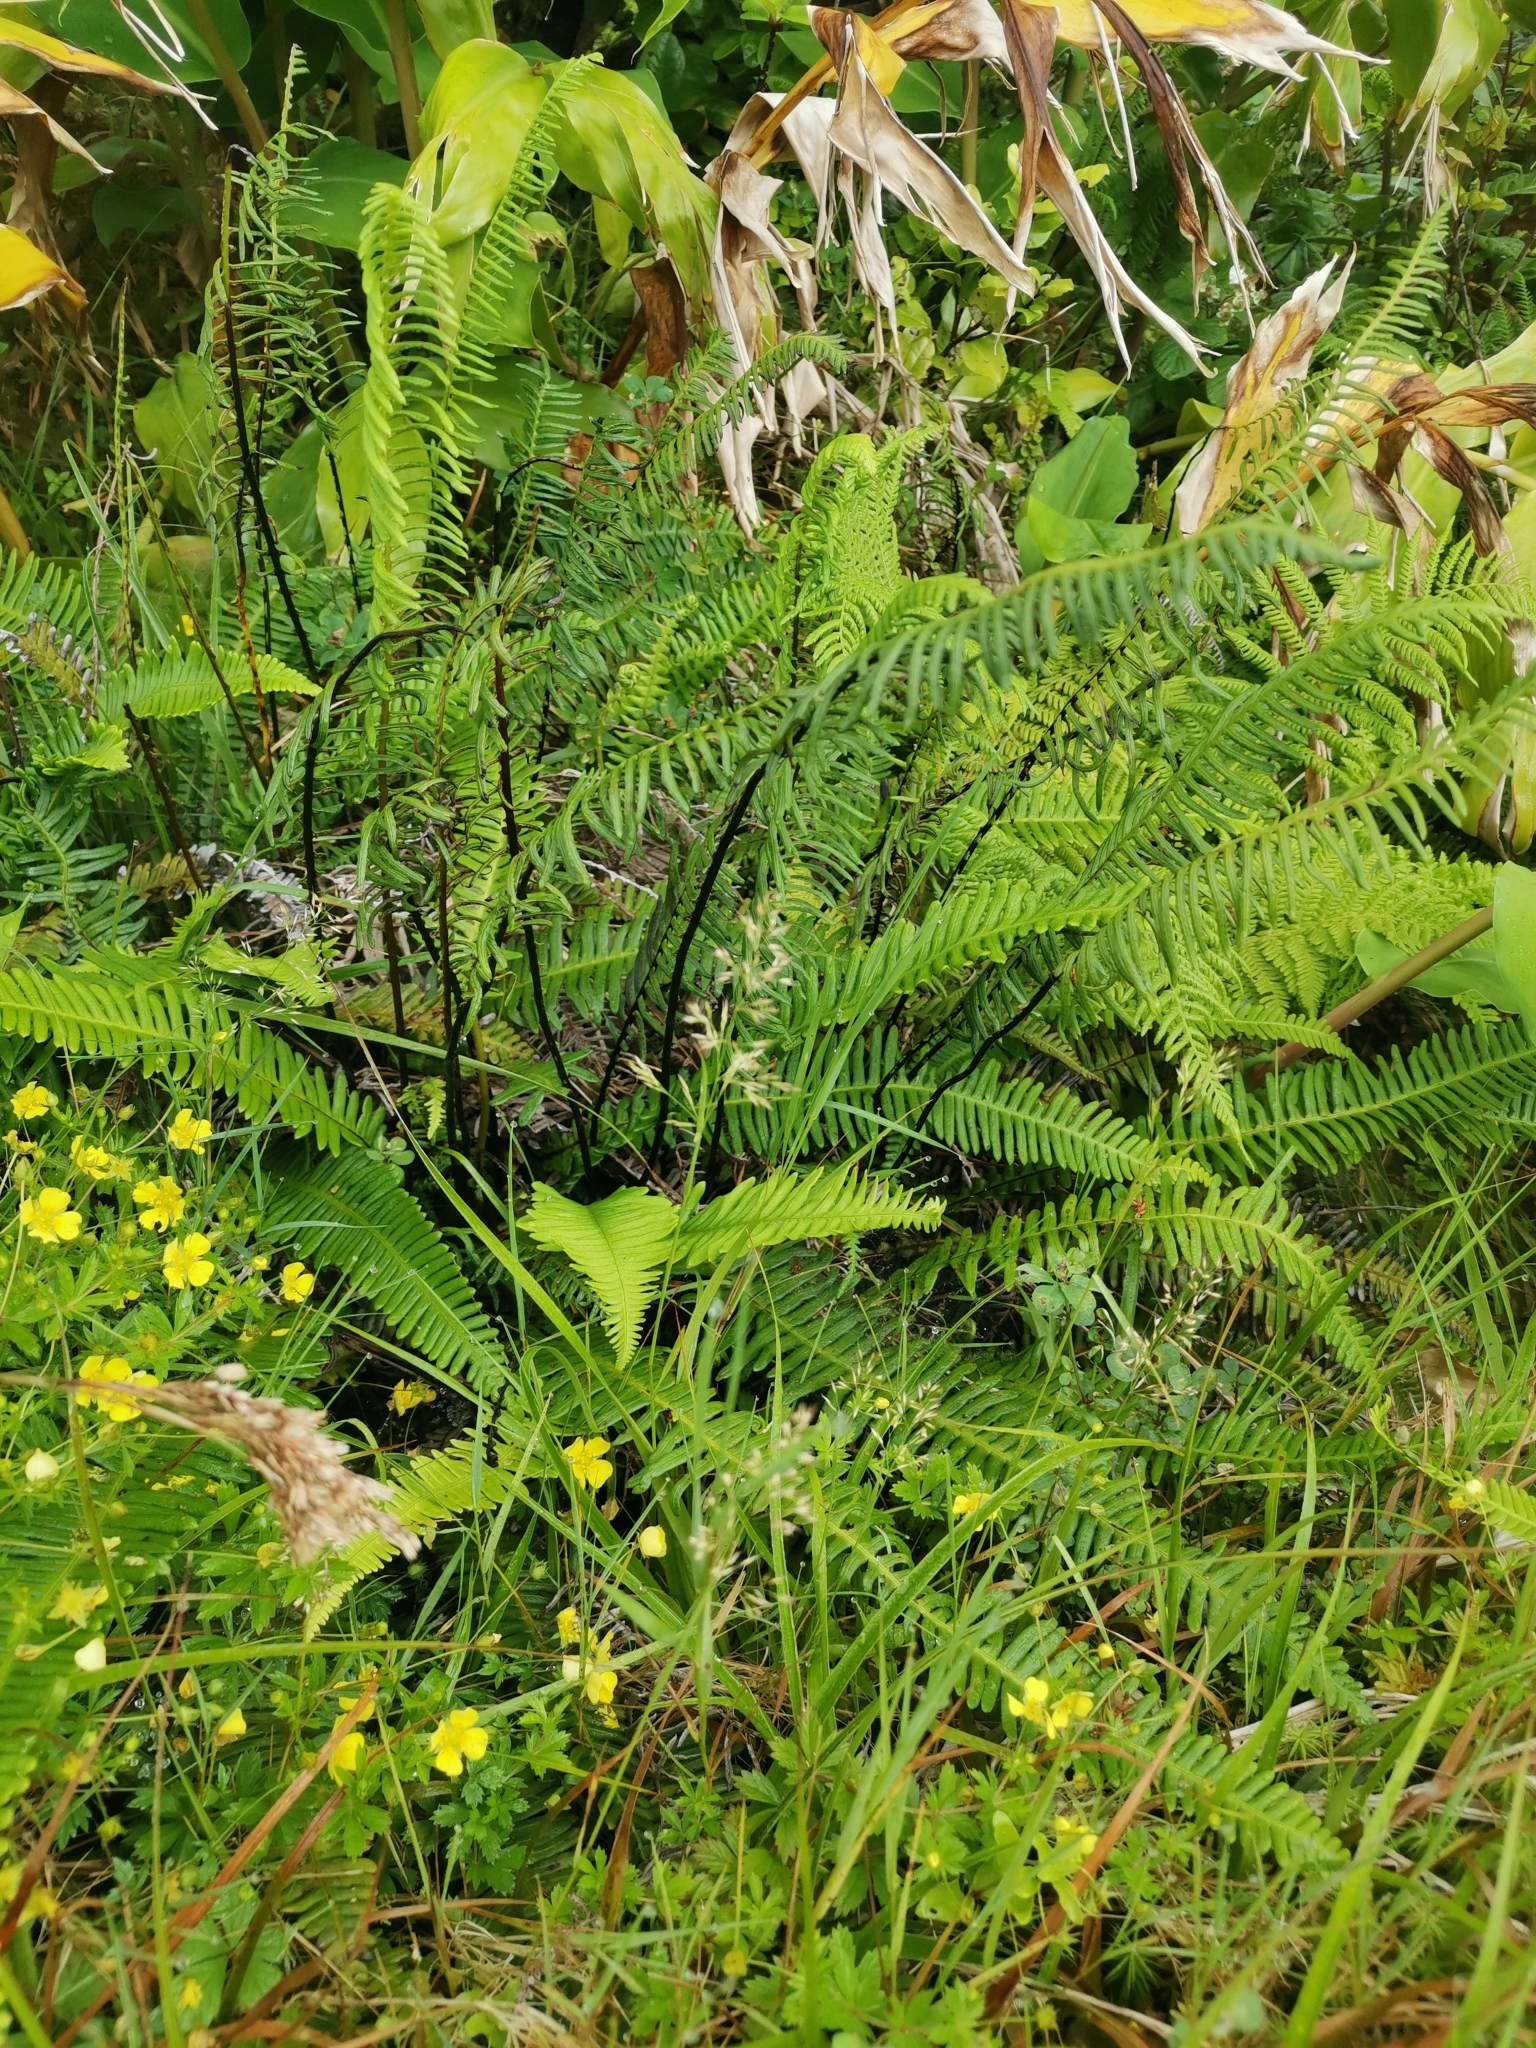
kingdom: Plantae
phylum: Tracheophyta
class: Polypodiopsida
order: Polypodiales
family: Blechnaceae
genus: Struthiopteris
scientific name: Struthiopteris spicant
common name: Deer fern
